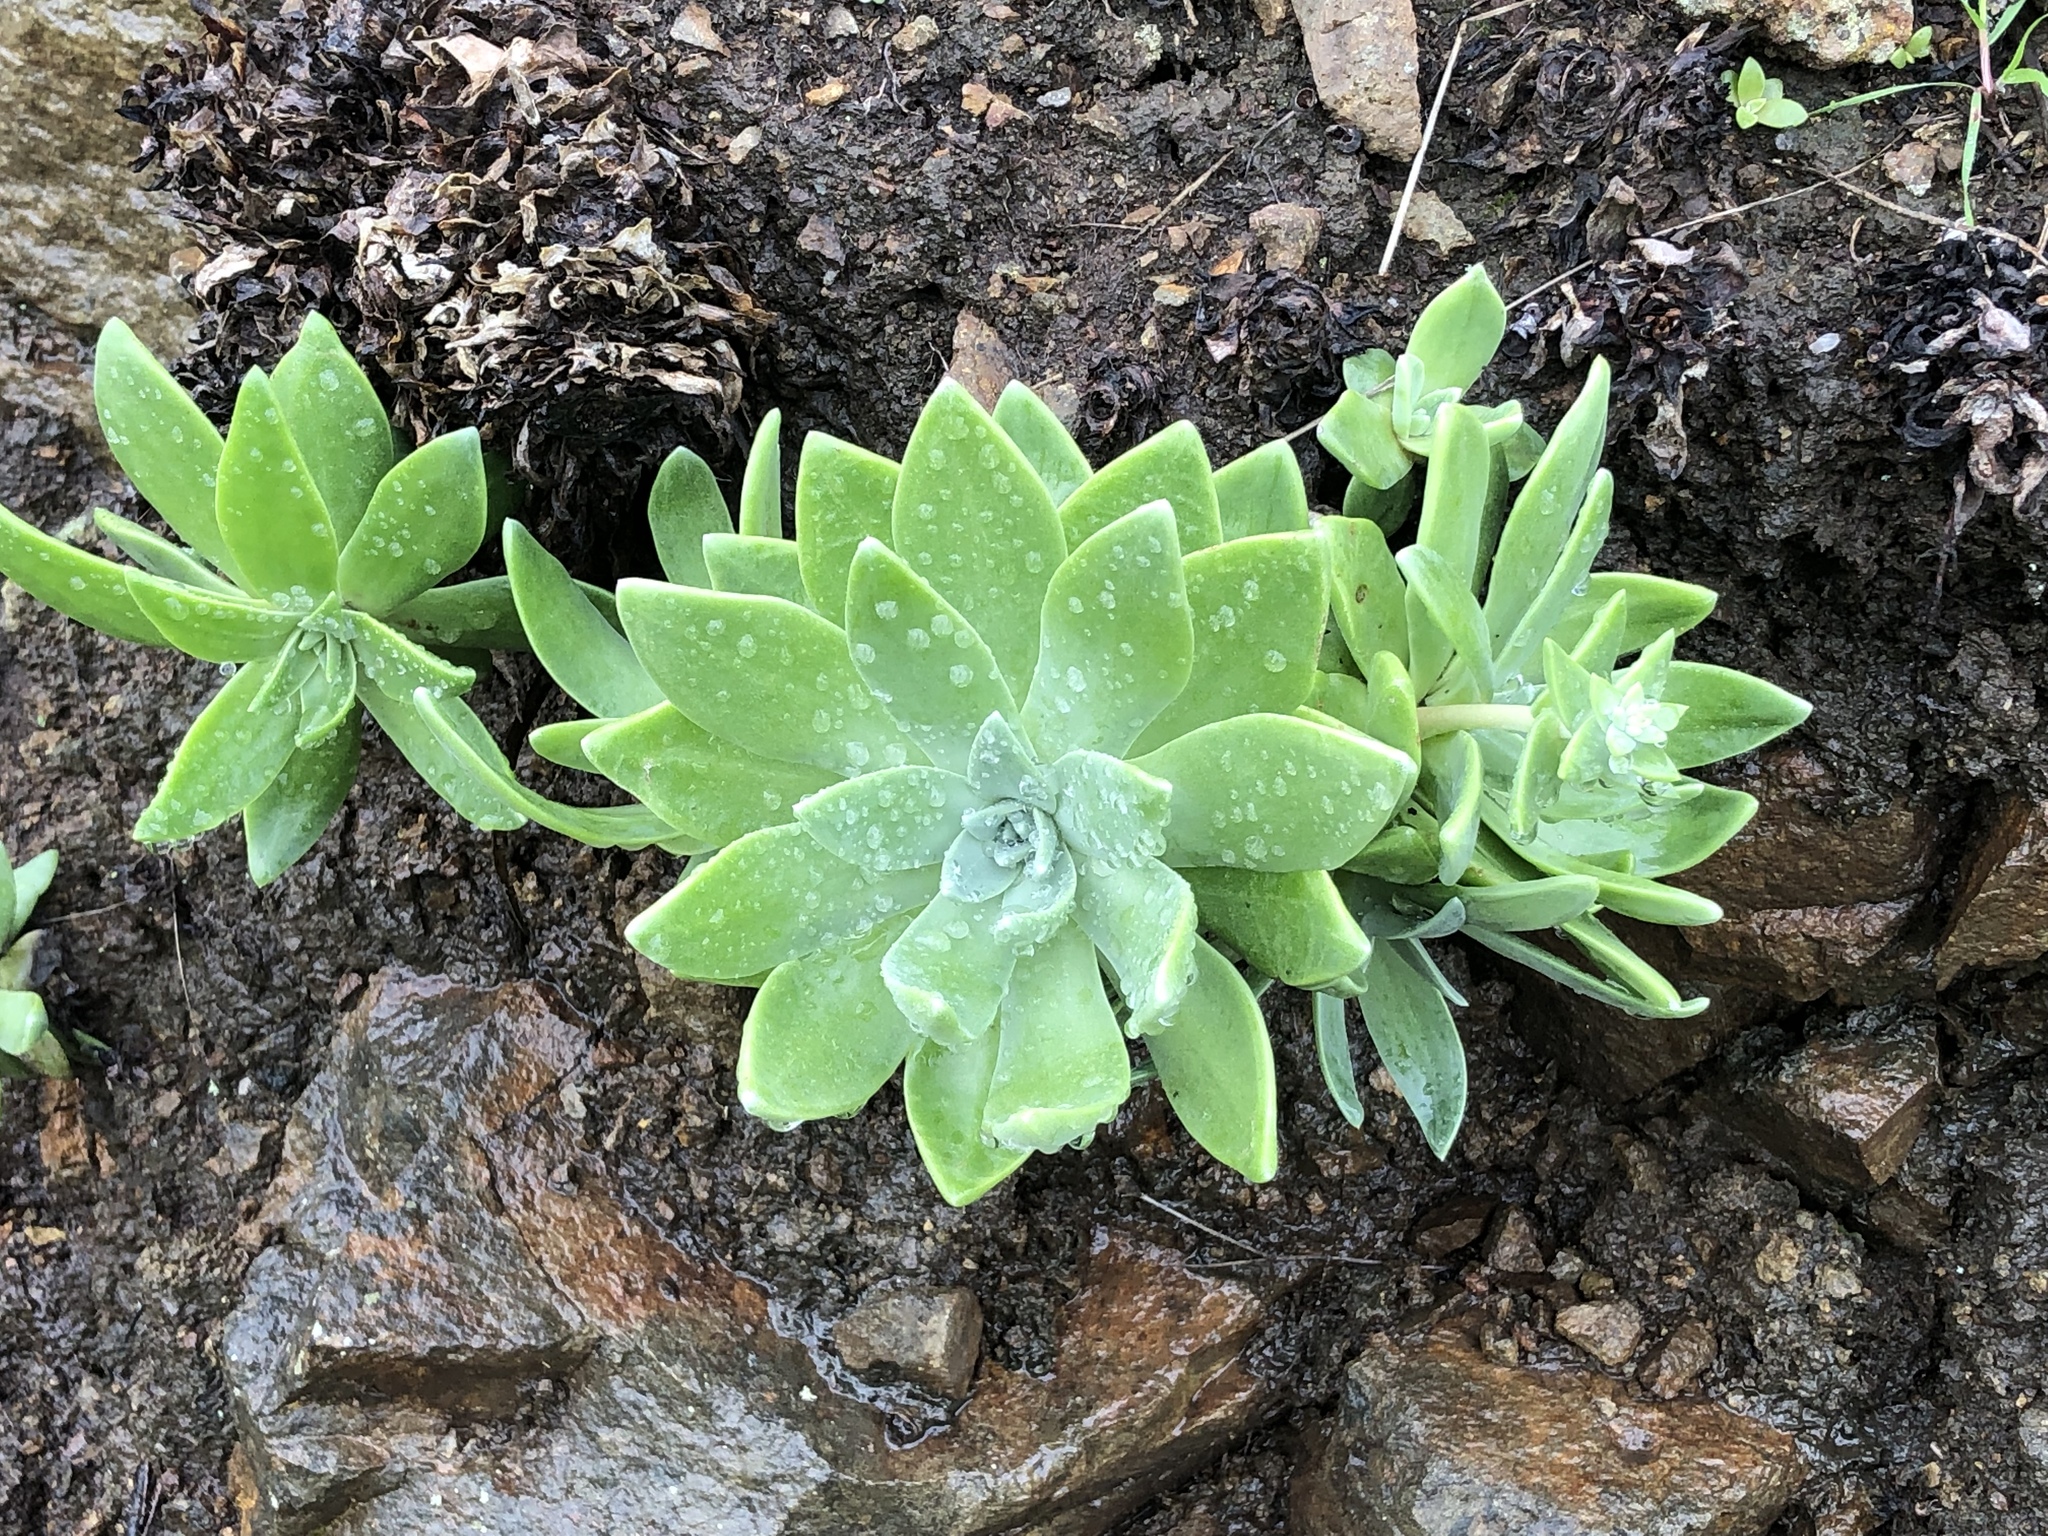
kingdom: Plantae
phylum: Tracheophyta
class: Magnoliopsida
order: Saxifragales
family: Crassulaceae
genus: Dudleya
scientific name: Dudleya greenei
